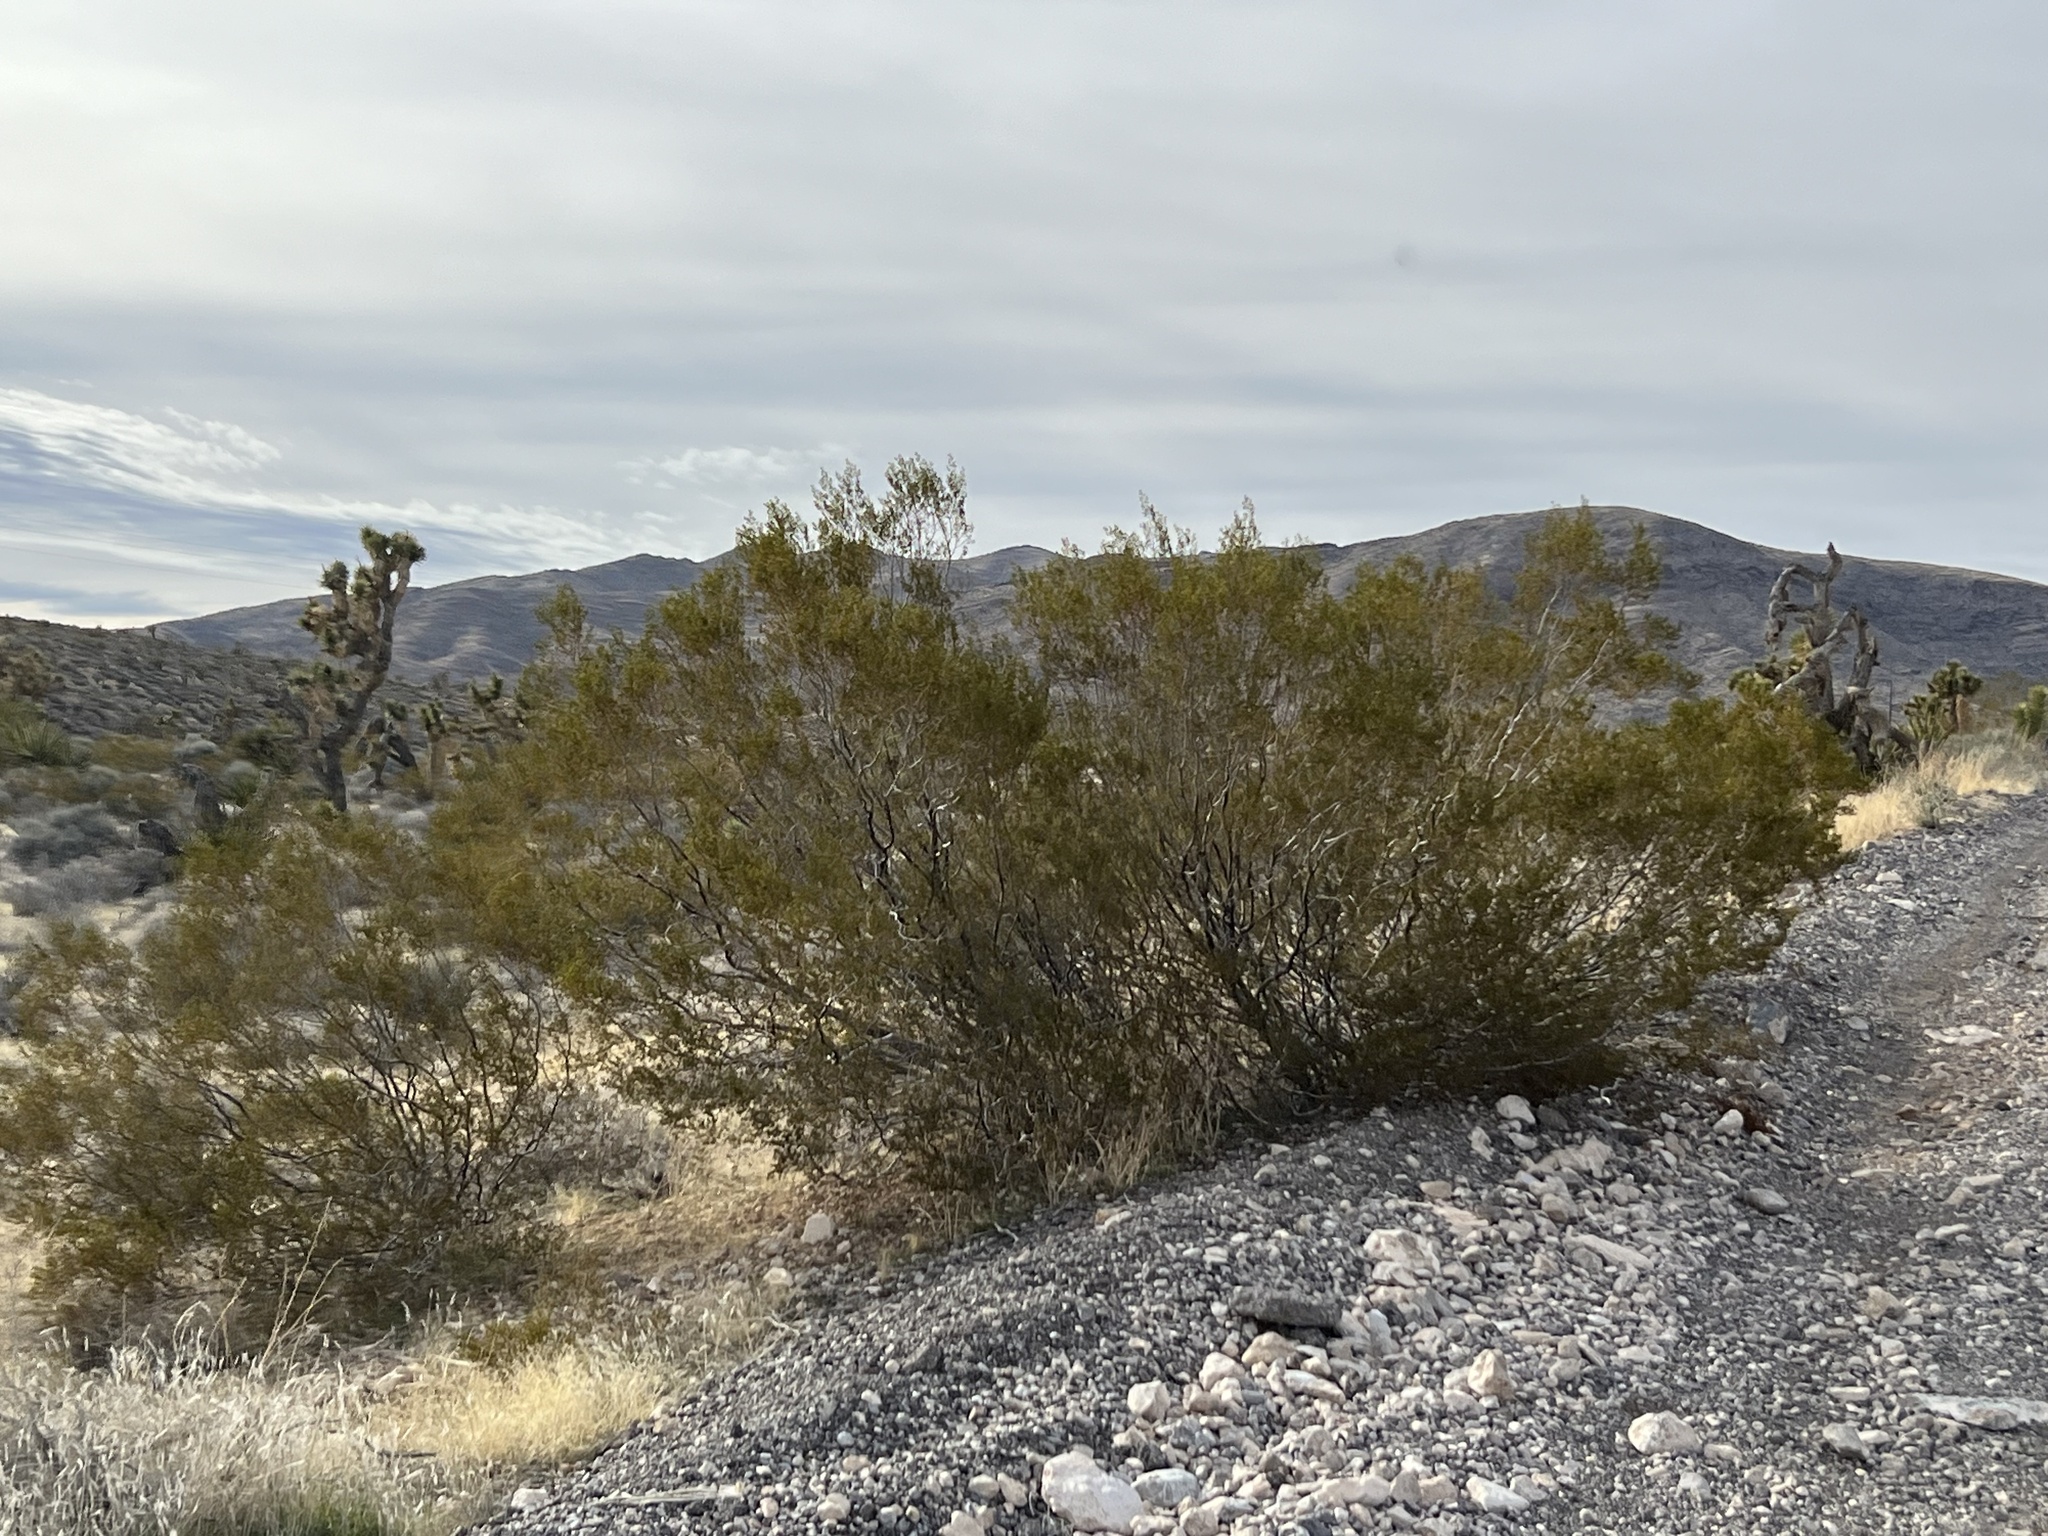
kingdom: Plantae
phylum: Tracheophyta
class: Magnoliopsida
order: Zygophyllales
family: Zygophyllaceae
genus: Larrea
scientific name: Larrea tridentata
